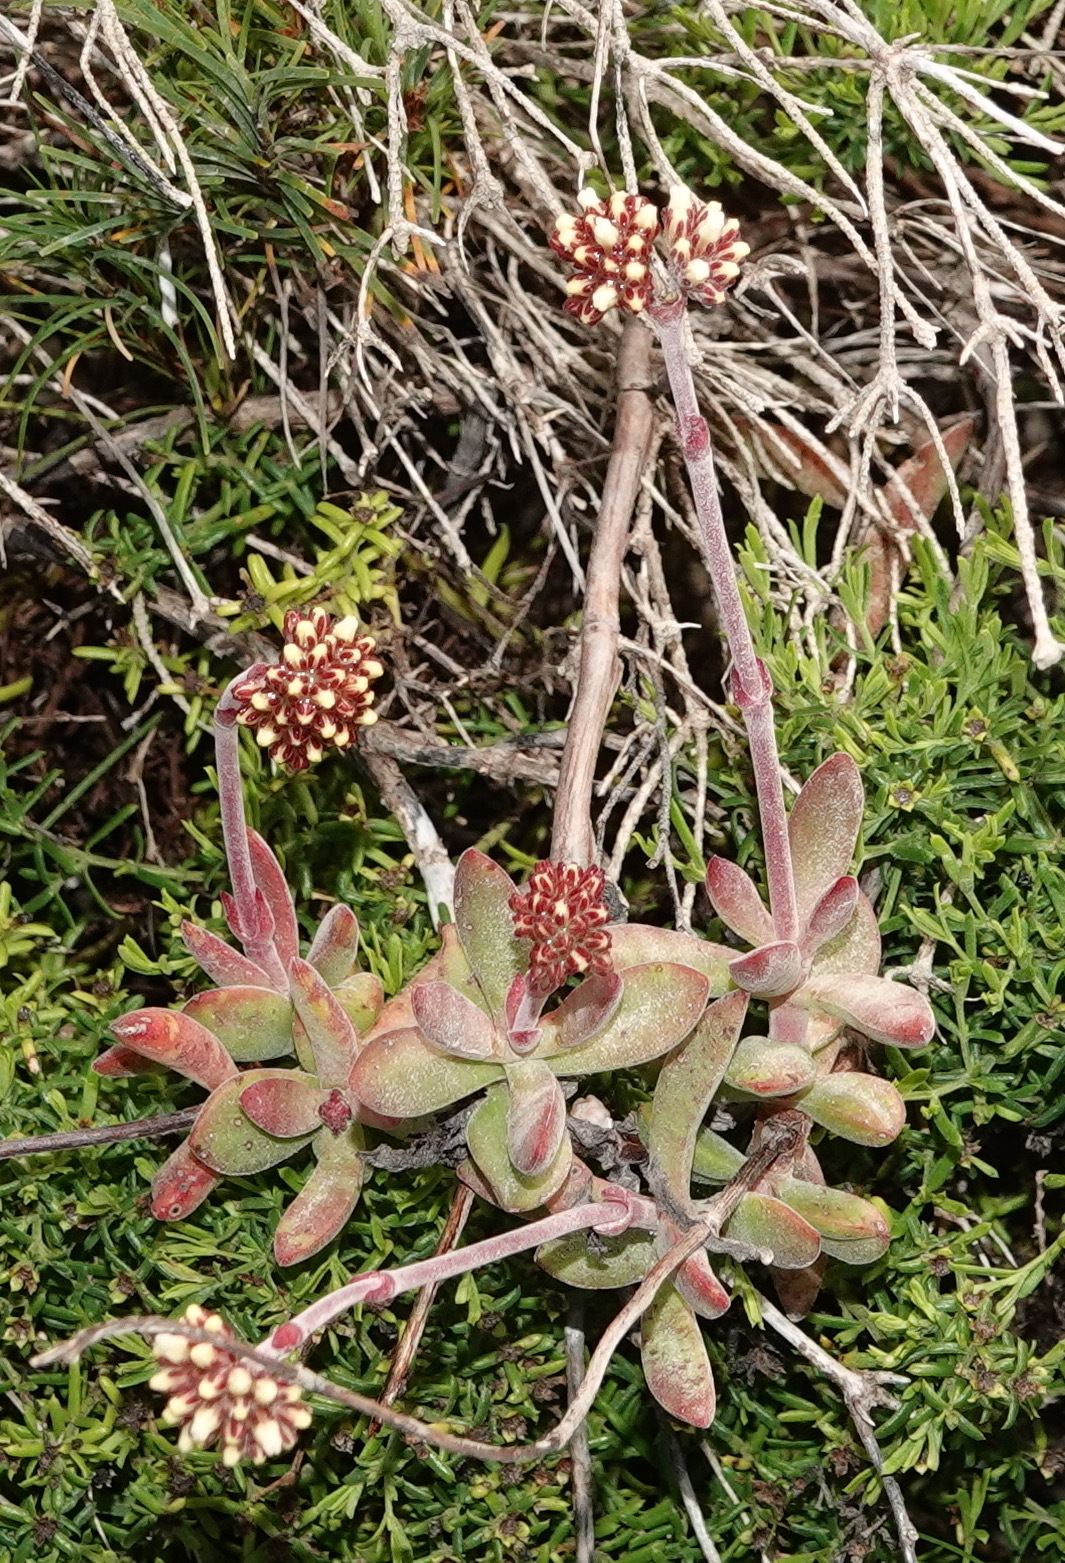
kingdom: Plantae
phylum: Tracheophyta
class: Magnoliopsida
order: Saxifragales
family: Crassulaceae
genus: Crassula
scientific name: Crassula pubescens
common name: Jersey pigmyweed
